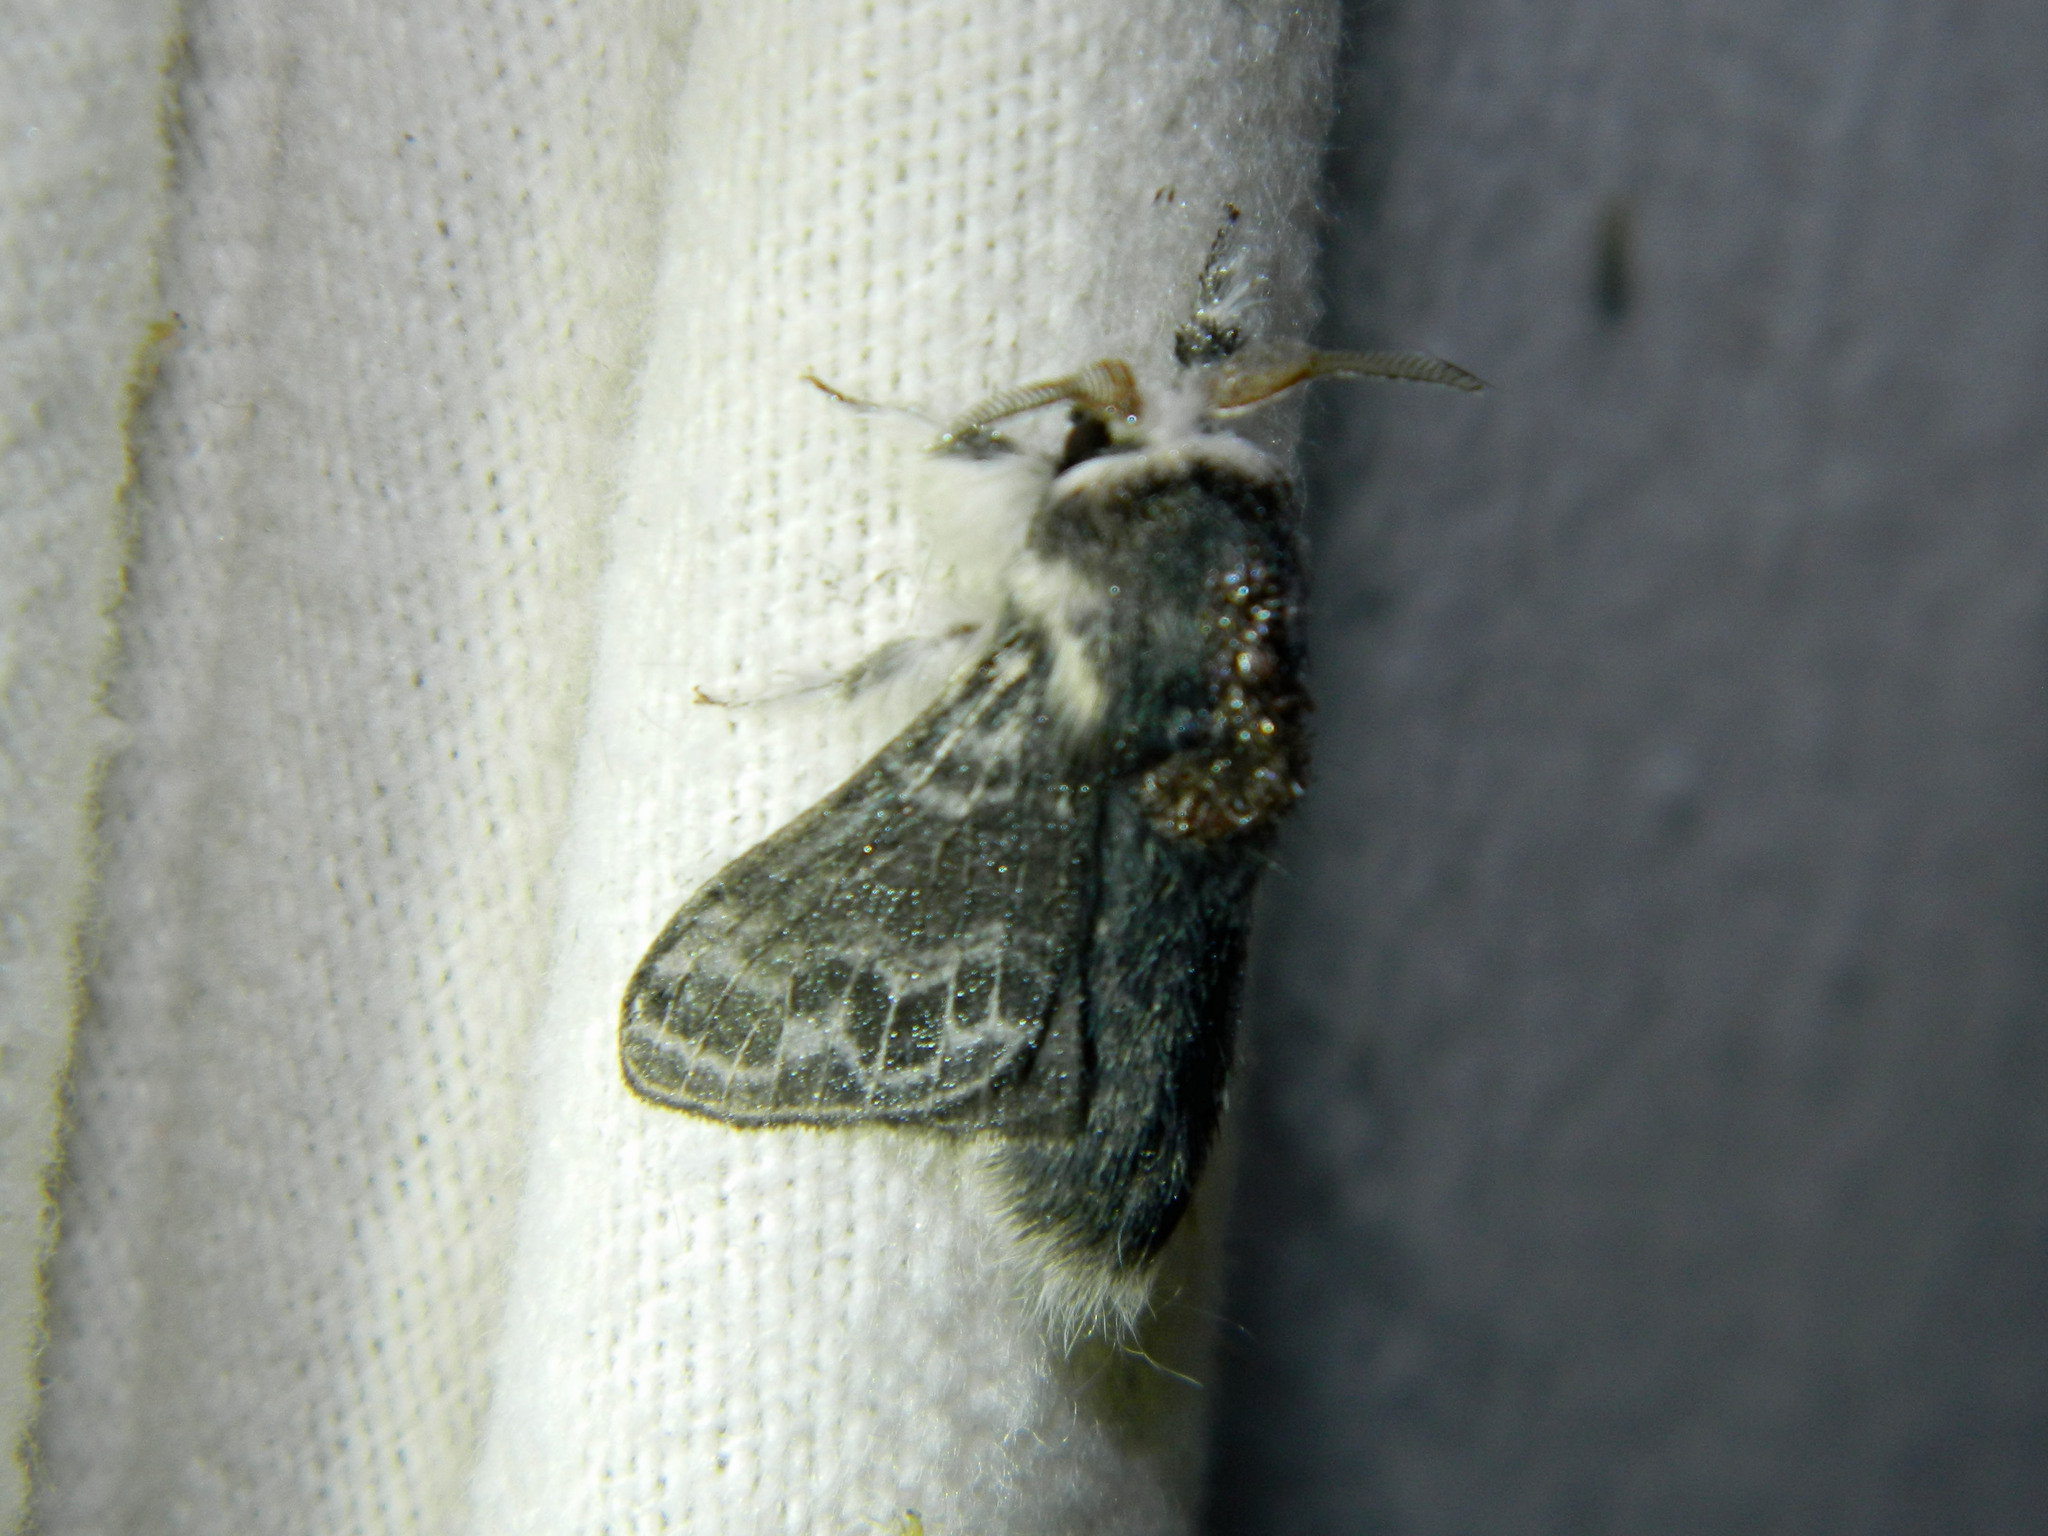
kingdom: Animalia
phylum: Arthropoda
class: Insecta
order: Lepidoptera
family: Lasiocampidae
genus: Tolype
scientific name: Tolype laricis
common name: Larch tolype moth
